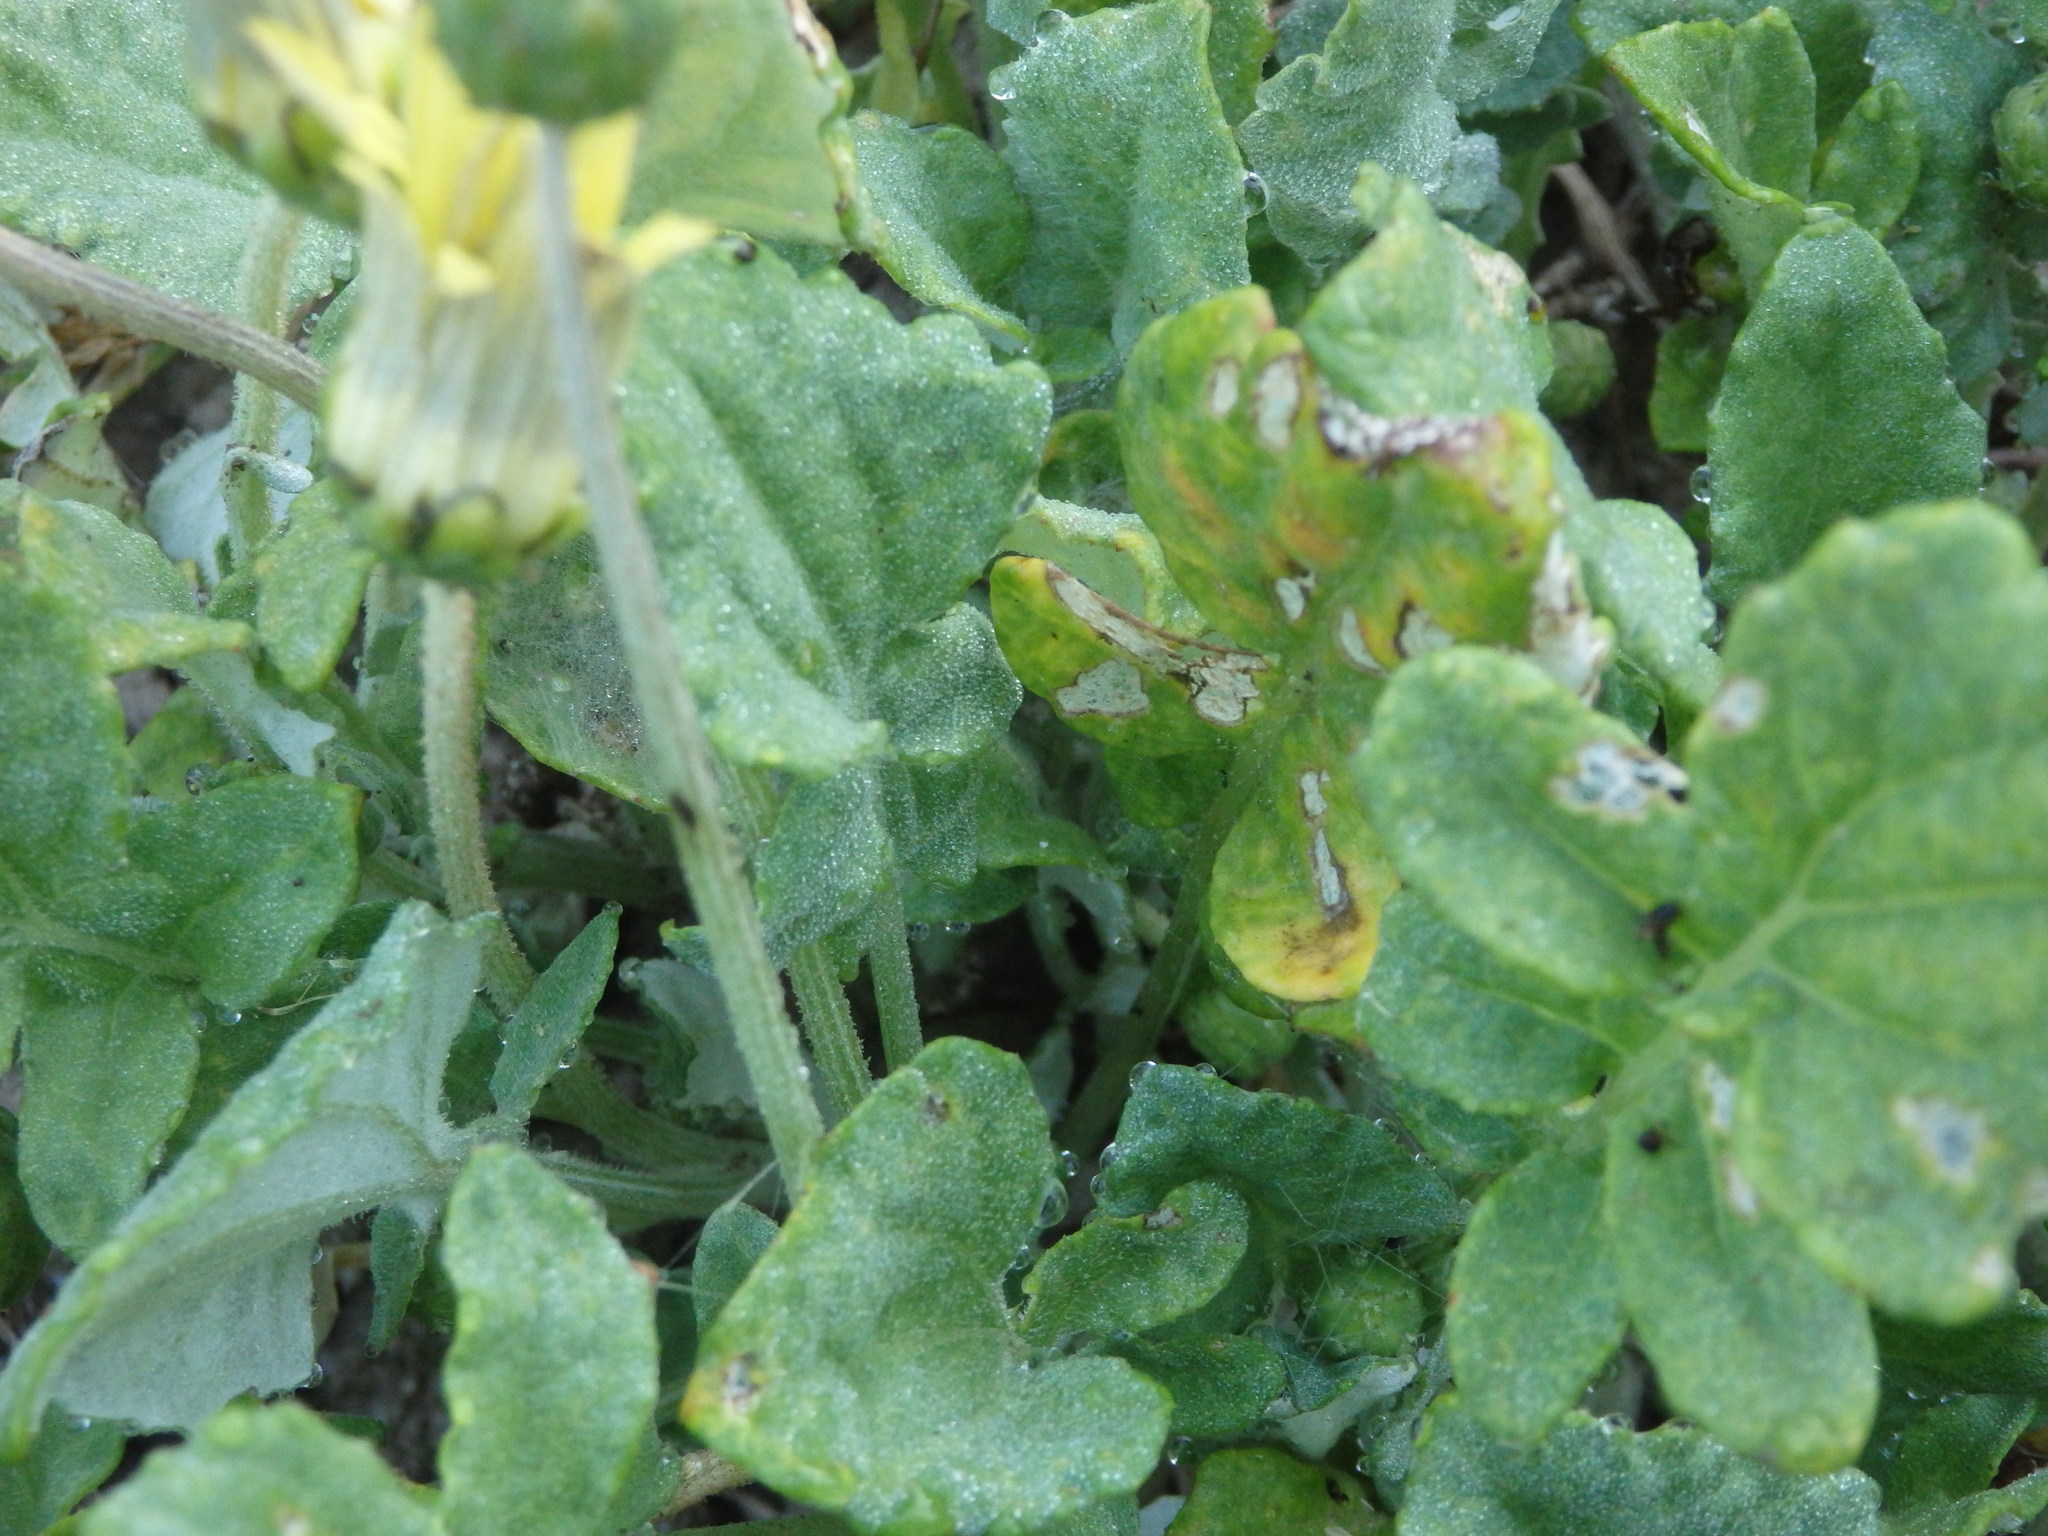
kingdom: Plantae
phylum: Tracheophyta
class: Magnoliopsida
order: Asterales
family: Asteraceae
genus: Arctotheca
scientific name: Arctotheca calendula
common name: Capeweed
